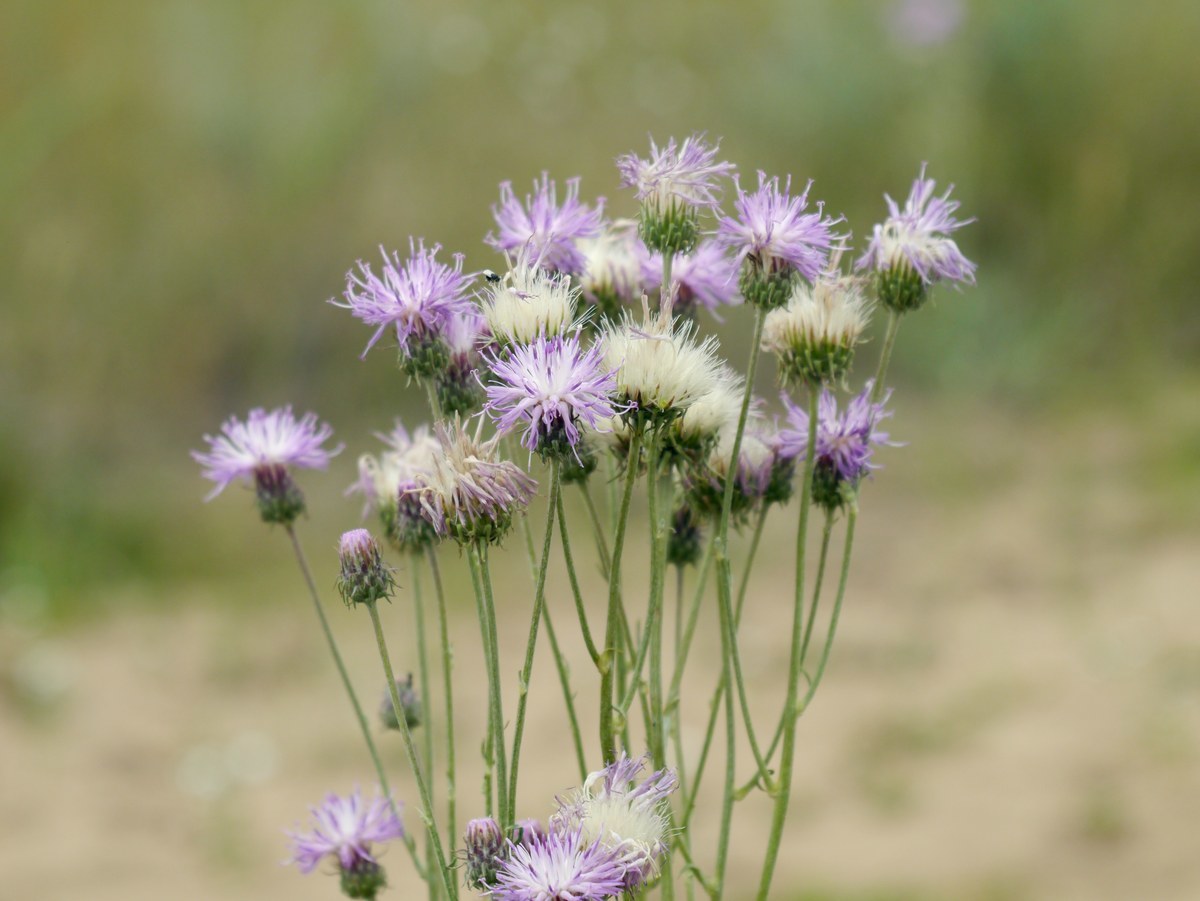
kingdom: Plantae
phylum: Tracheophyta
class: Magnoliopsida
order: Asterales
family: Asteraceae
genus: Jurinea
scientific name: Jurinea longifolia
